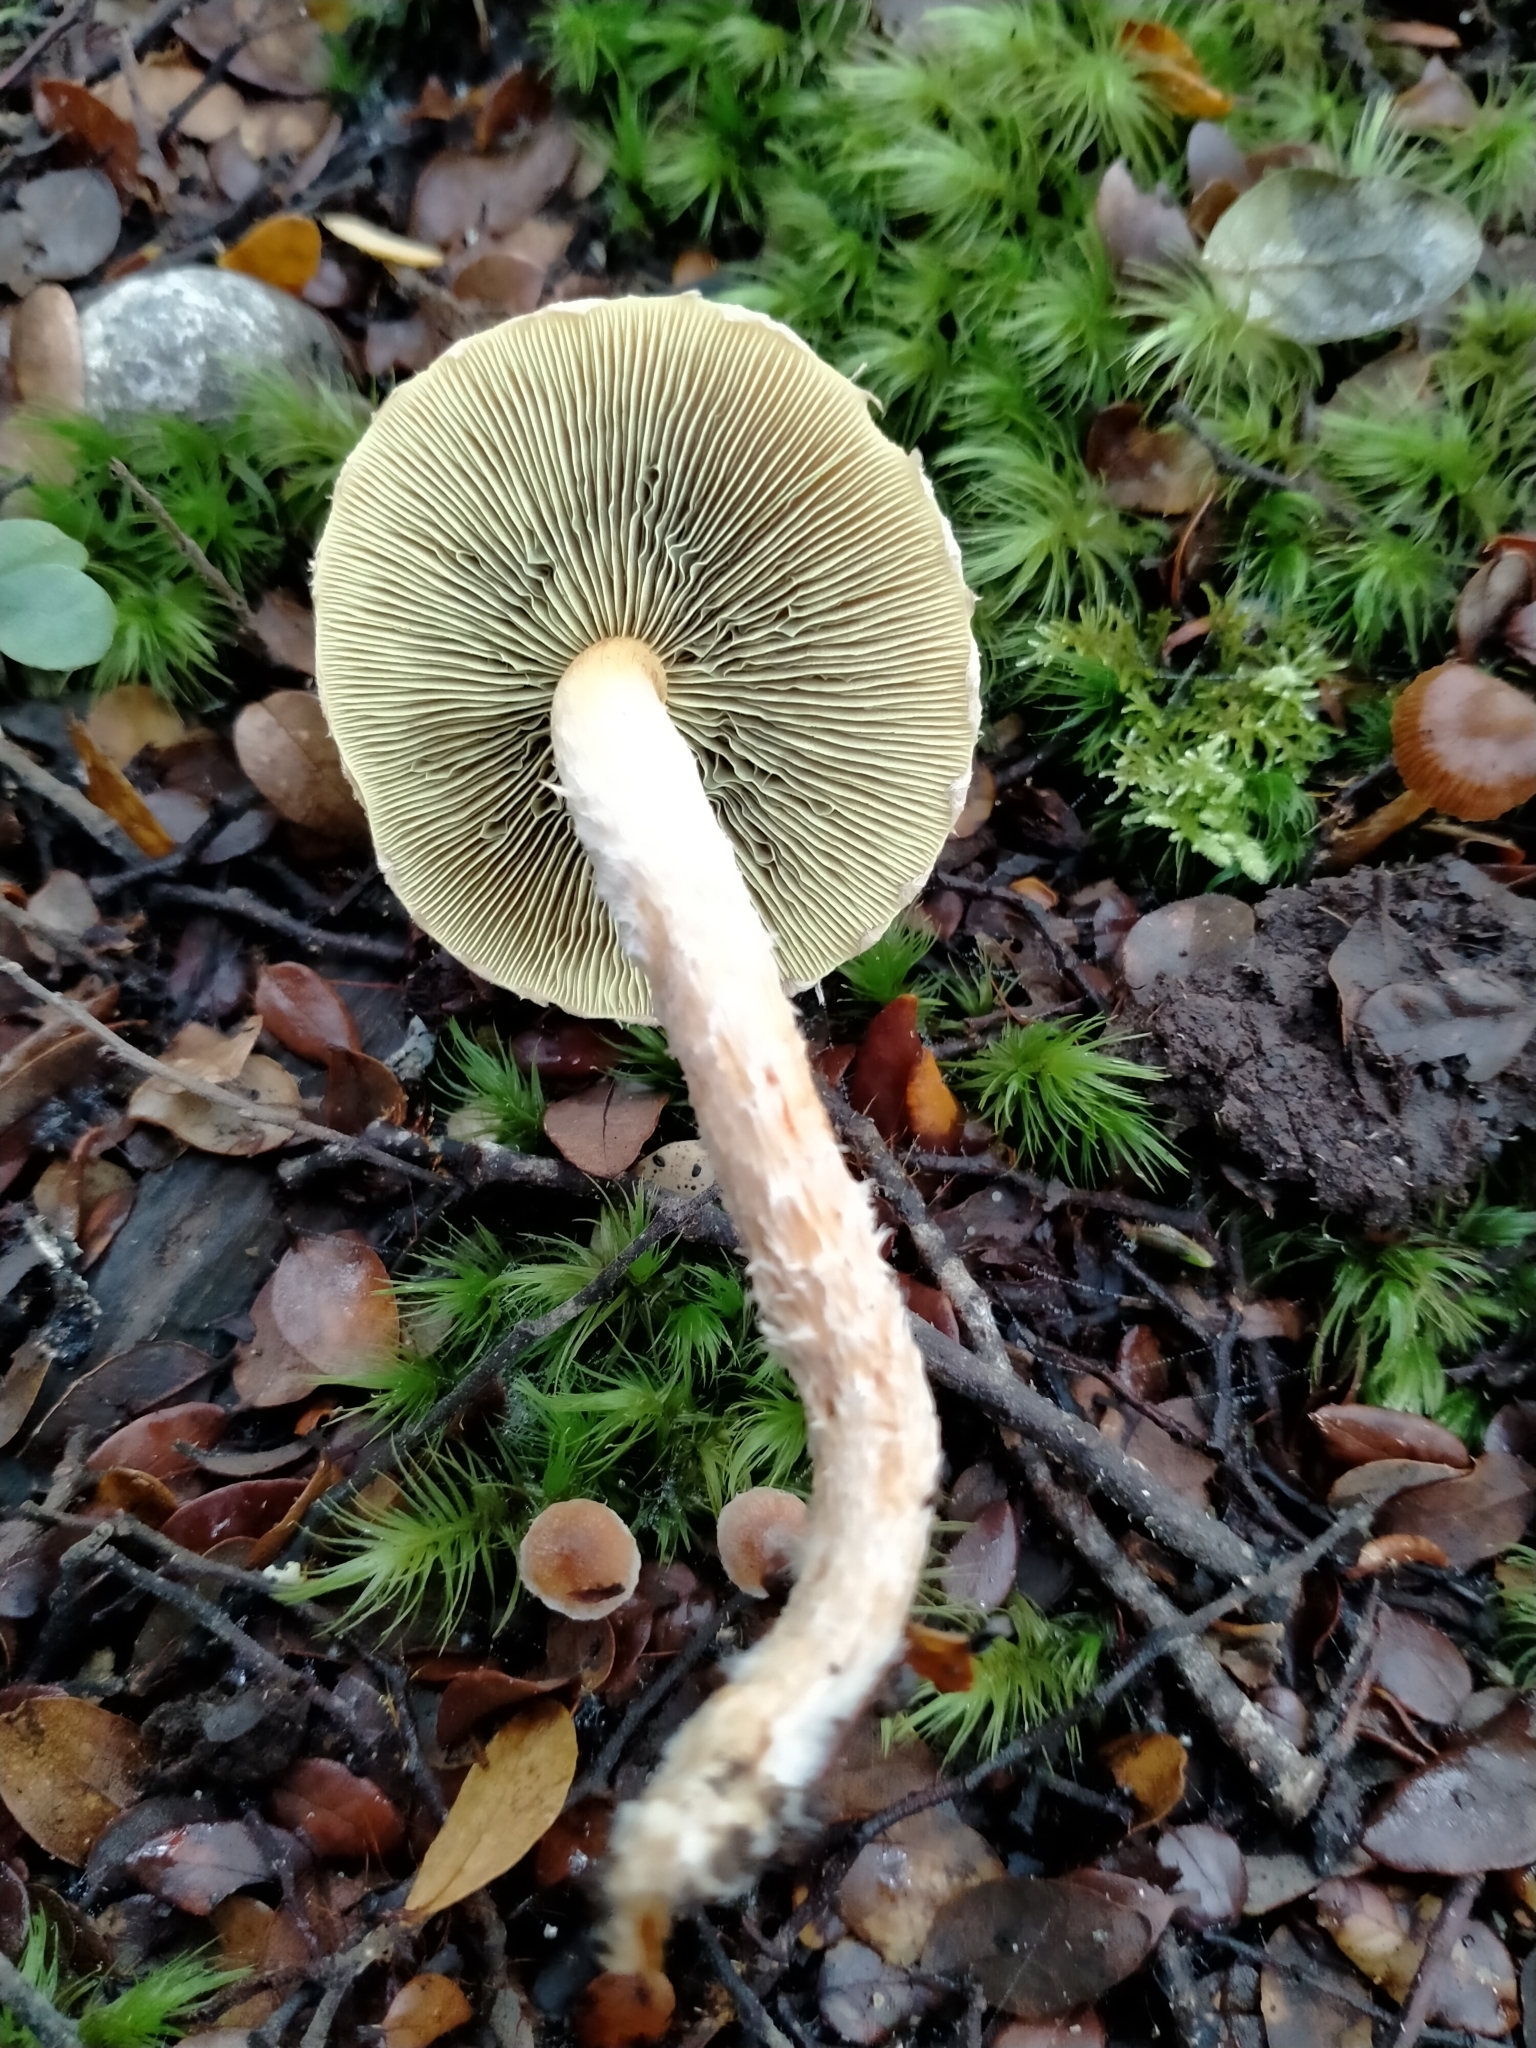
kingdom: Fungi
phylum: Basidiomycota
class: Agaricomycetes
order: Agaricales
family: Strophariaceae
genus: Hypholoma
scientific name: Hypholoma australianum
